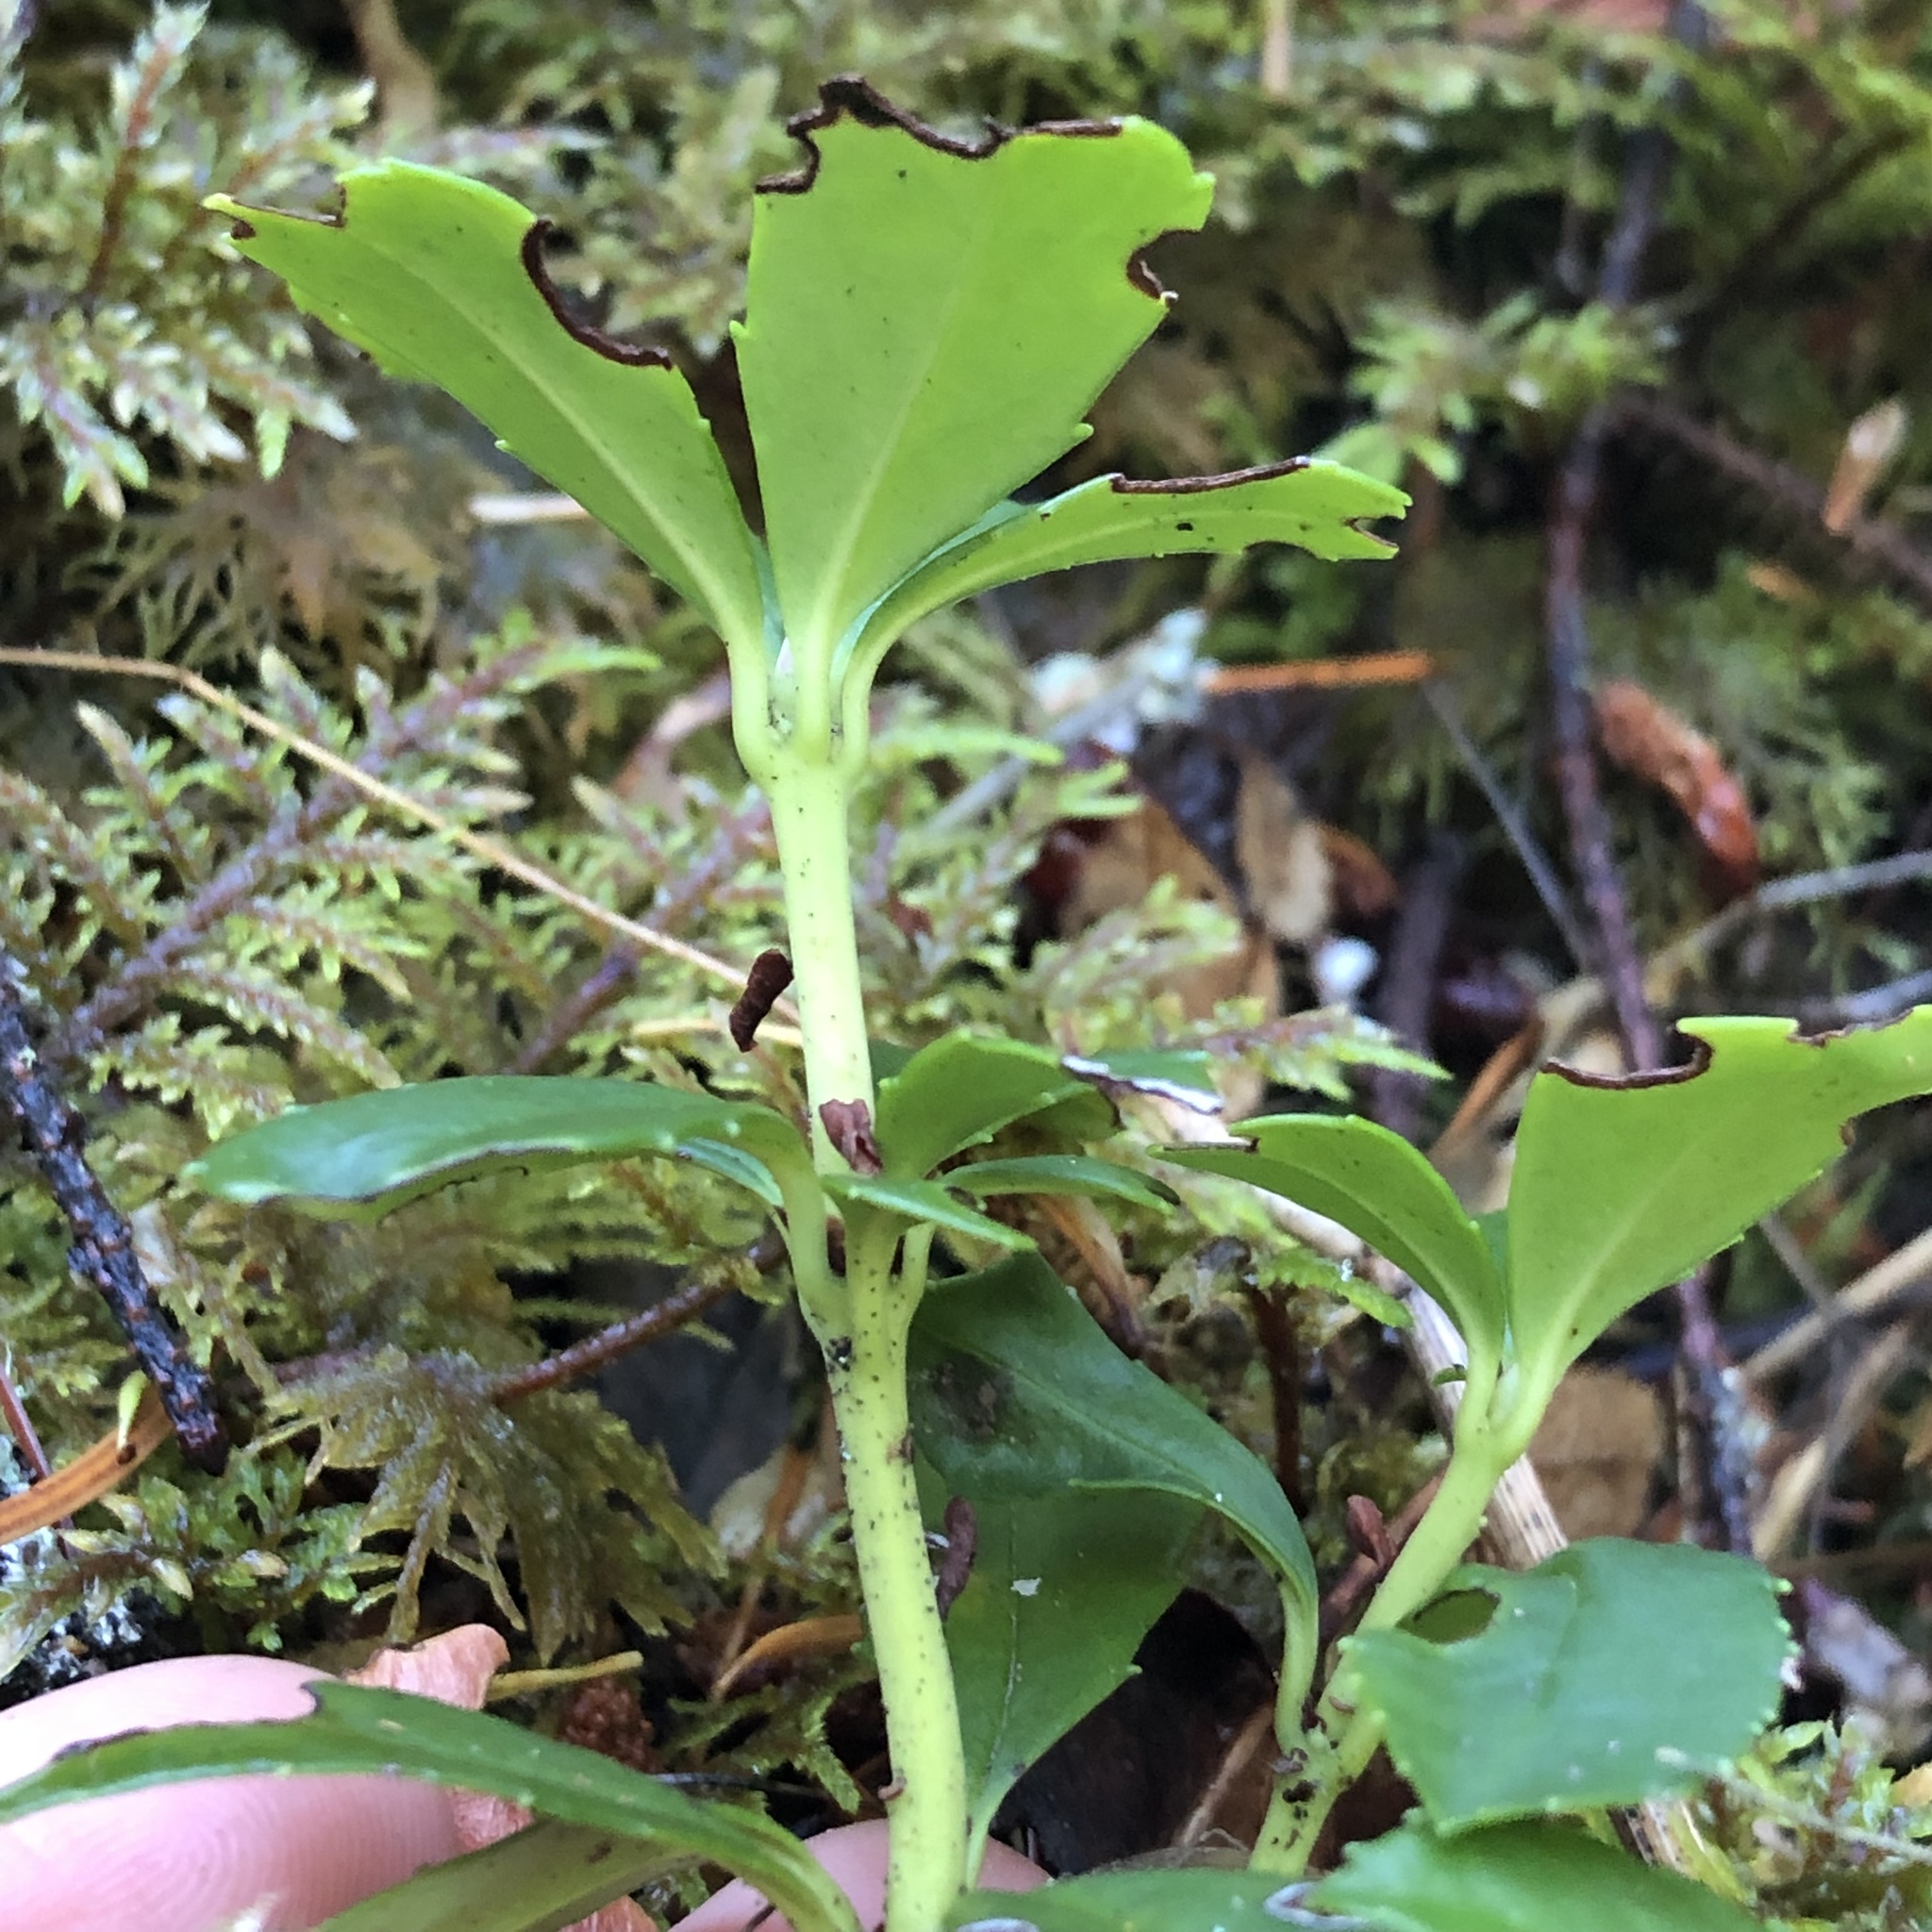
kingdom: Plantae
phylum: Tracheophyta
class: Magnoliopsida
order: Ericales
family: Ericaceae
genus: Chimaphila
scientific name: Chimaphila umbellata
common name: Pipsissewa
